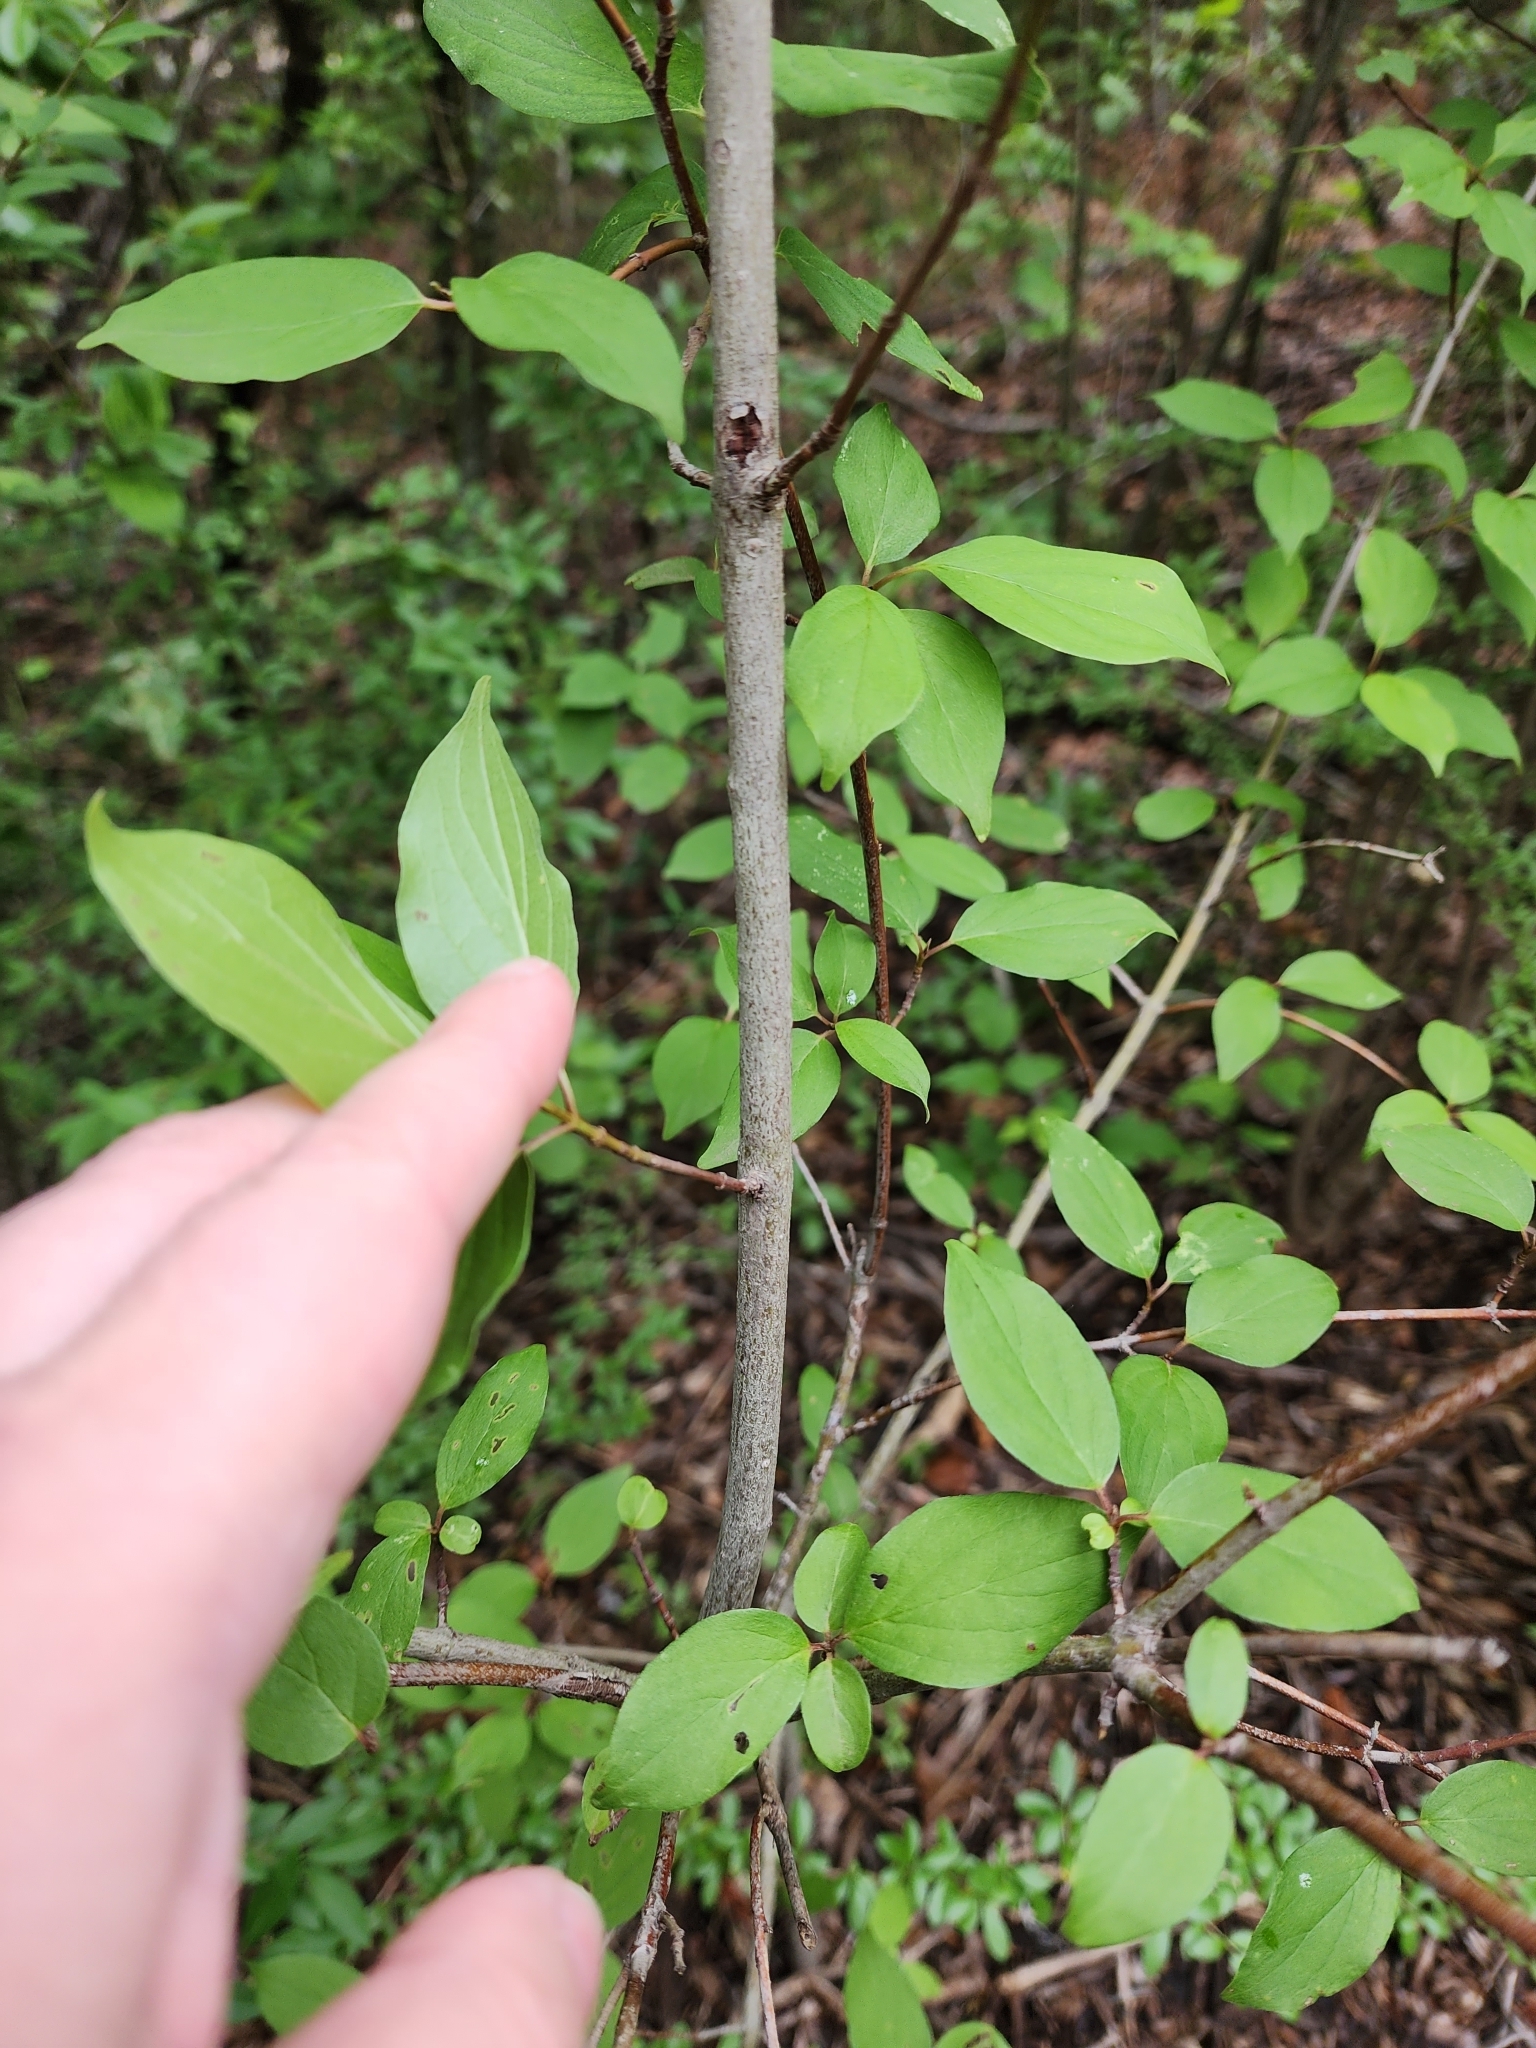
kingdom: Plantae
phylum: Tracheophyta
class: Magnoliopsida
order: Cornales
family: Cornaceae
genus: Cornus
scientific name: Cornus drummondii
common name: Rough-leaf dogwood
